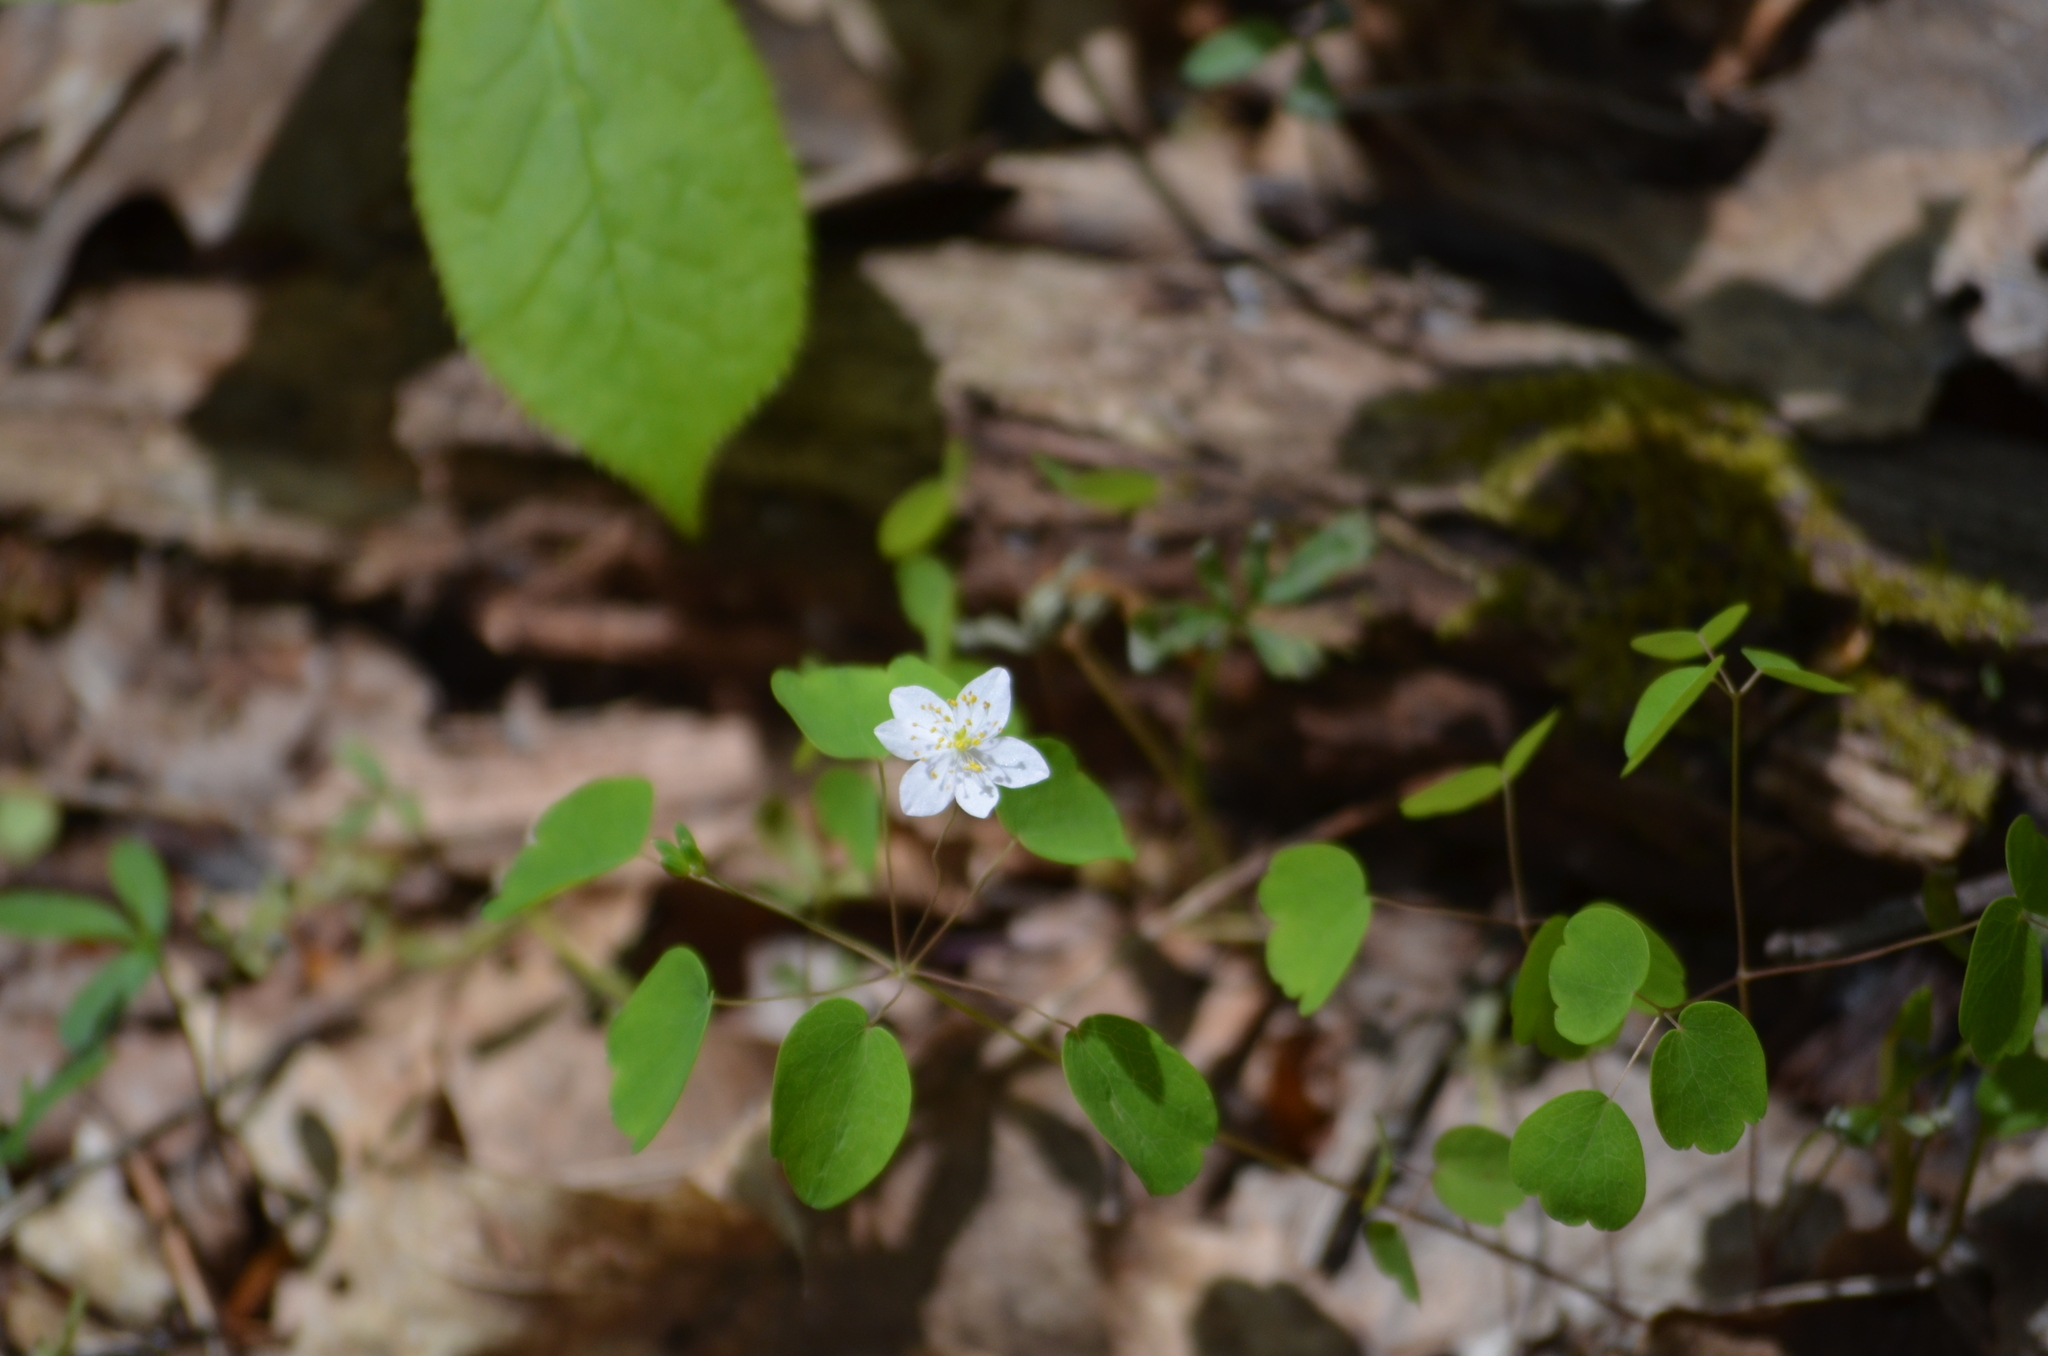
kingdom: Plantae
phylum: Tracheophyta
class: Magnoliopsida
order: Ranunculales
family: Ranunculaceae
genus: Thalictrum
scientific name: Thalictrum thalictroides
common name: Rue-anemone
